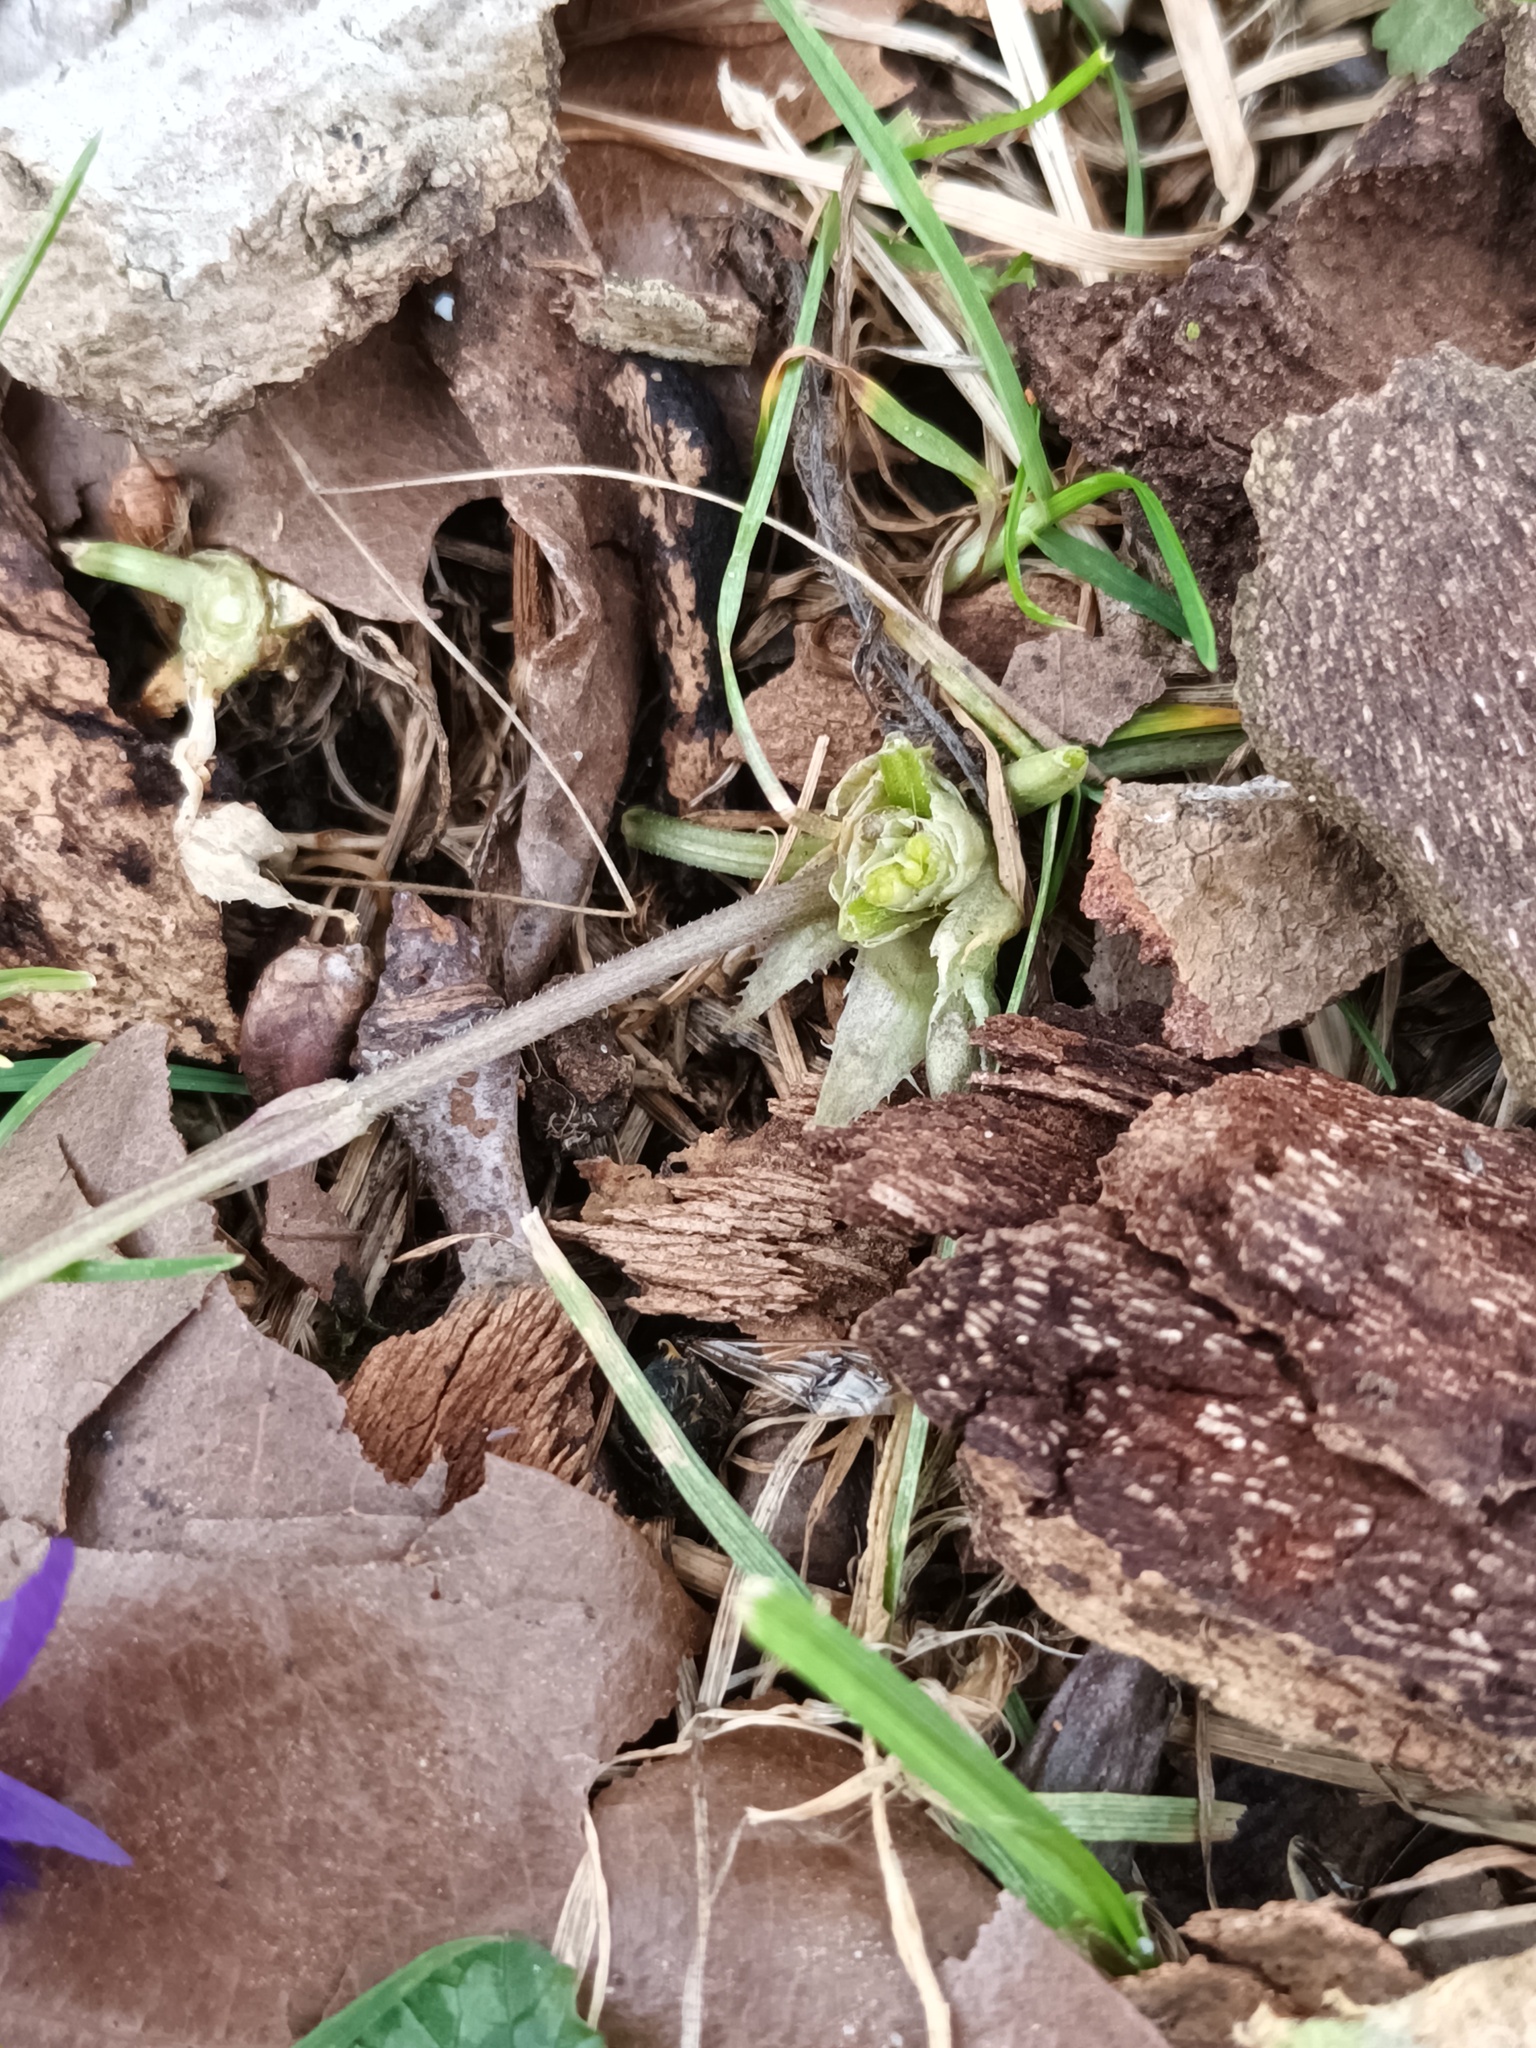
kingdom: Plantae
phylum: Tracheophyta
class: Magnoliopsida
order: Malpighiales
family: Violaceae
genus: Viola
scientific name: Viola odorata
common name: Sweet violet
